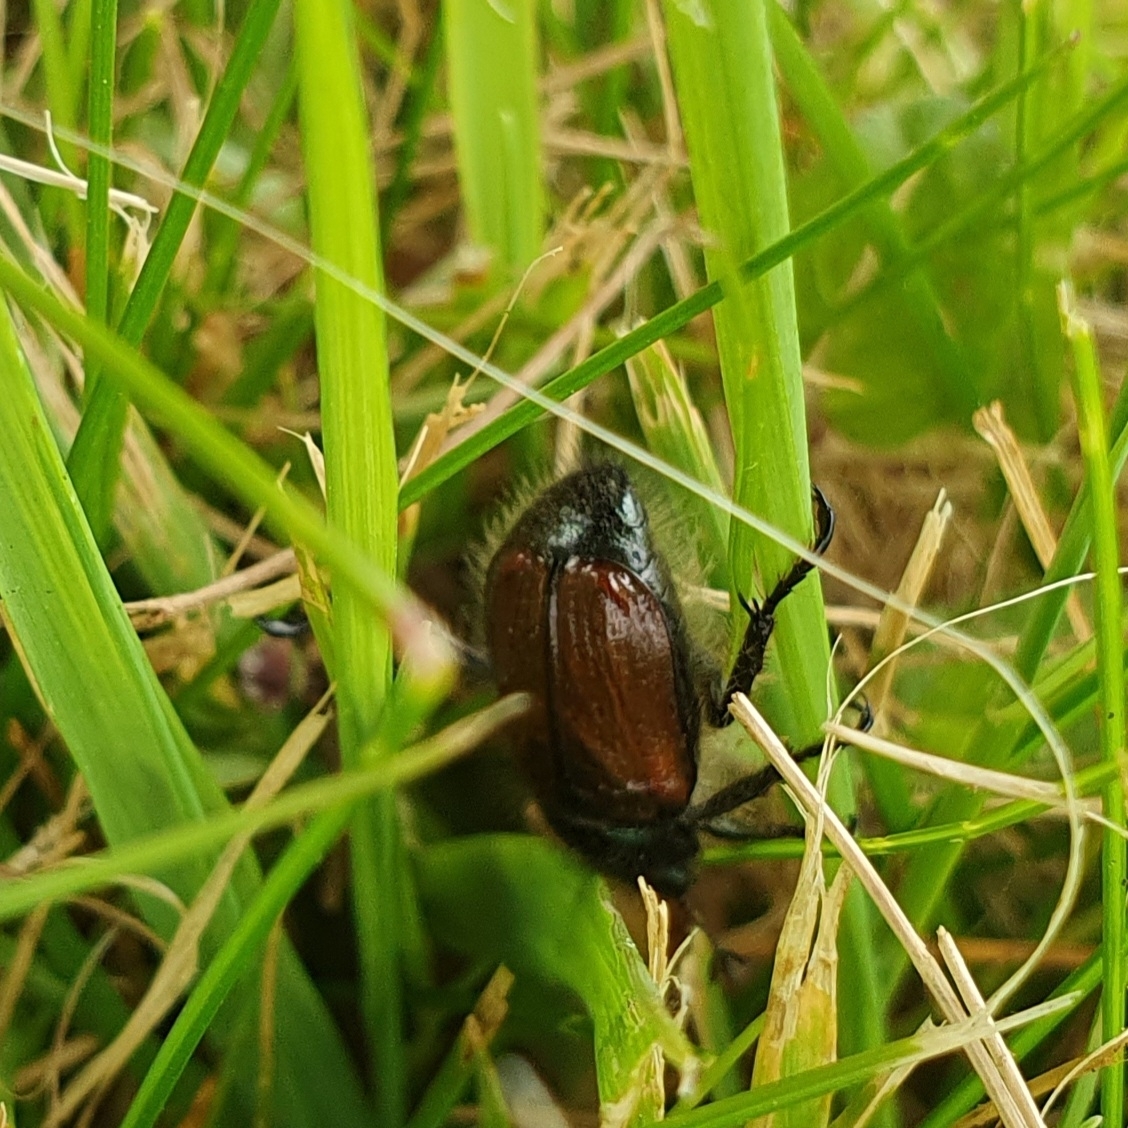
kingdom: Animalia
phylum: Arthropoda
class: Insecta
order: Coleoptera
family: Scarabaeidae
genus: Phyllopertha
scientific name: Phyllopertha horticola
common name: Garden chafer
